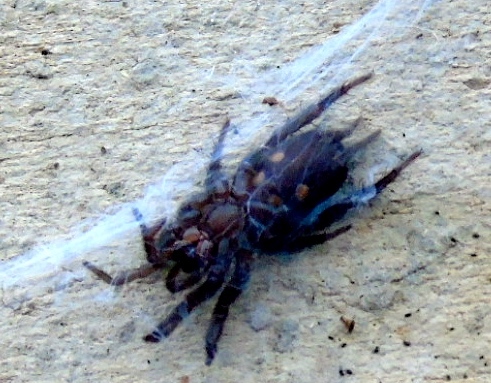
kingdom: Animalia
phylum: Arthropoda
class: Arachnida
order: Araneae
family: Euagridae
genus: Euagrus
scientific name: Euagrus
